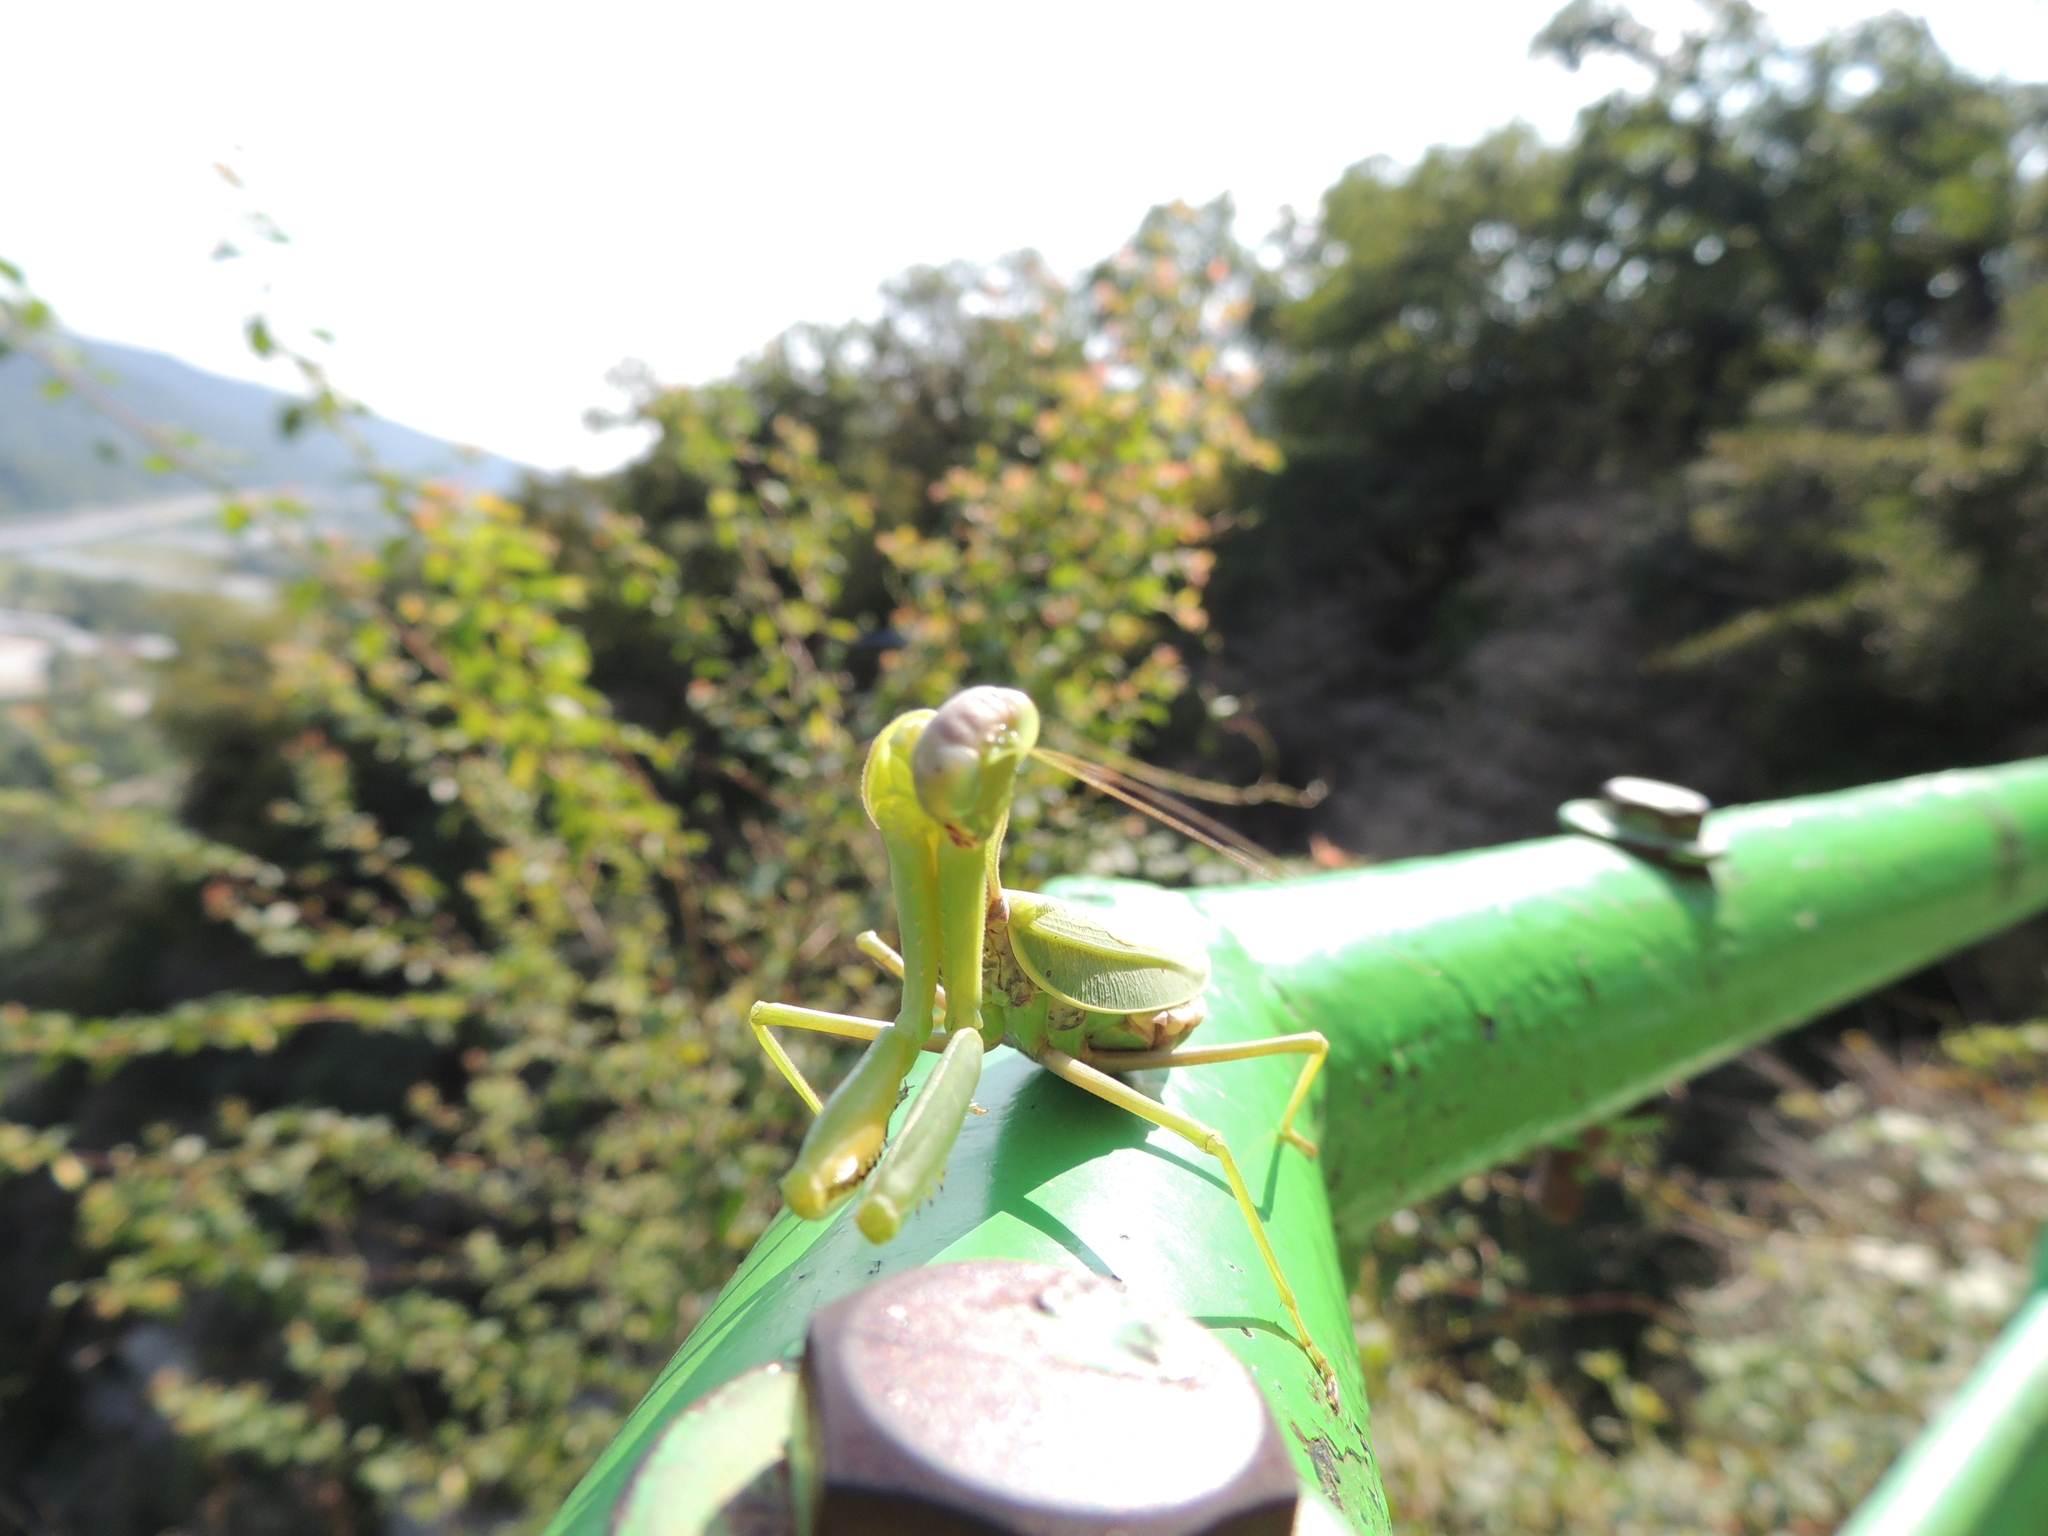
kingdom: Animalia
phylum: Arthropoda
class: Insecta
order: Mantodea
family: Mantidae
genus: Hierodula
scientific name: Hierodula transcaucasica
